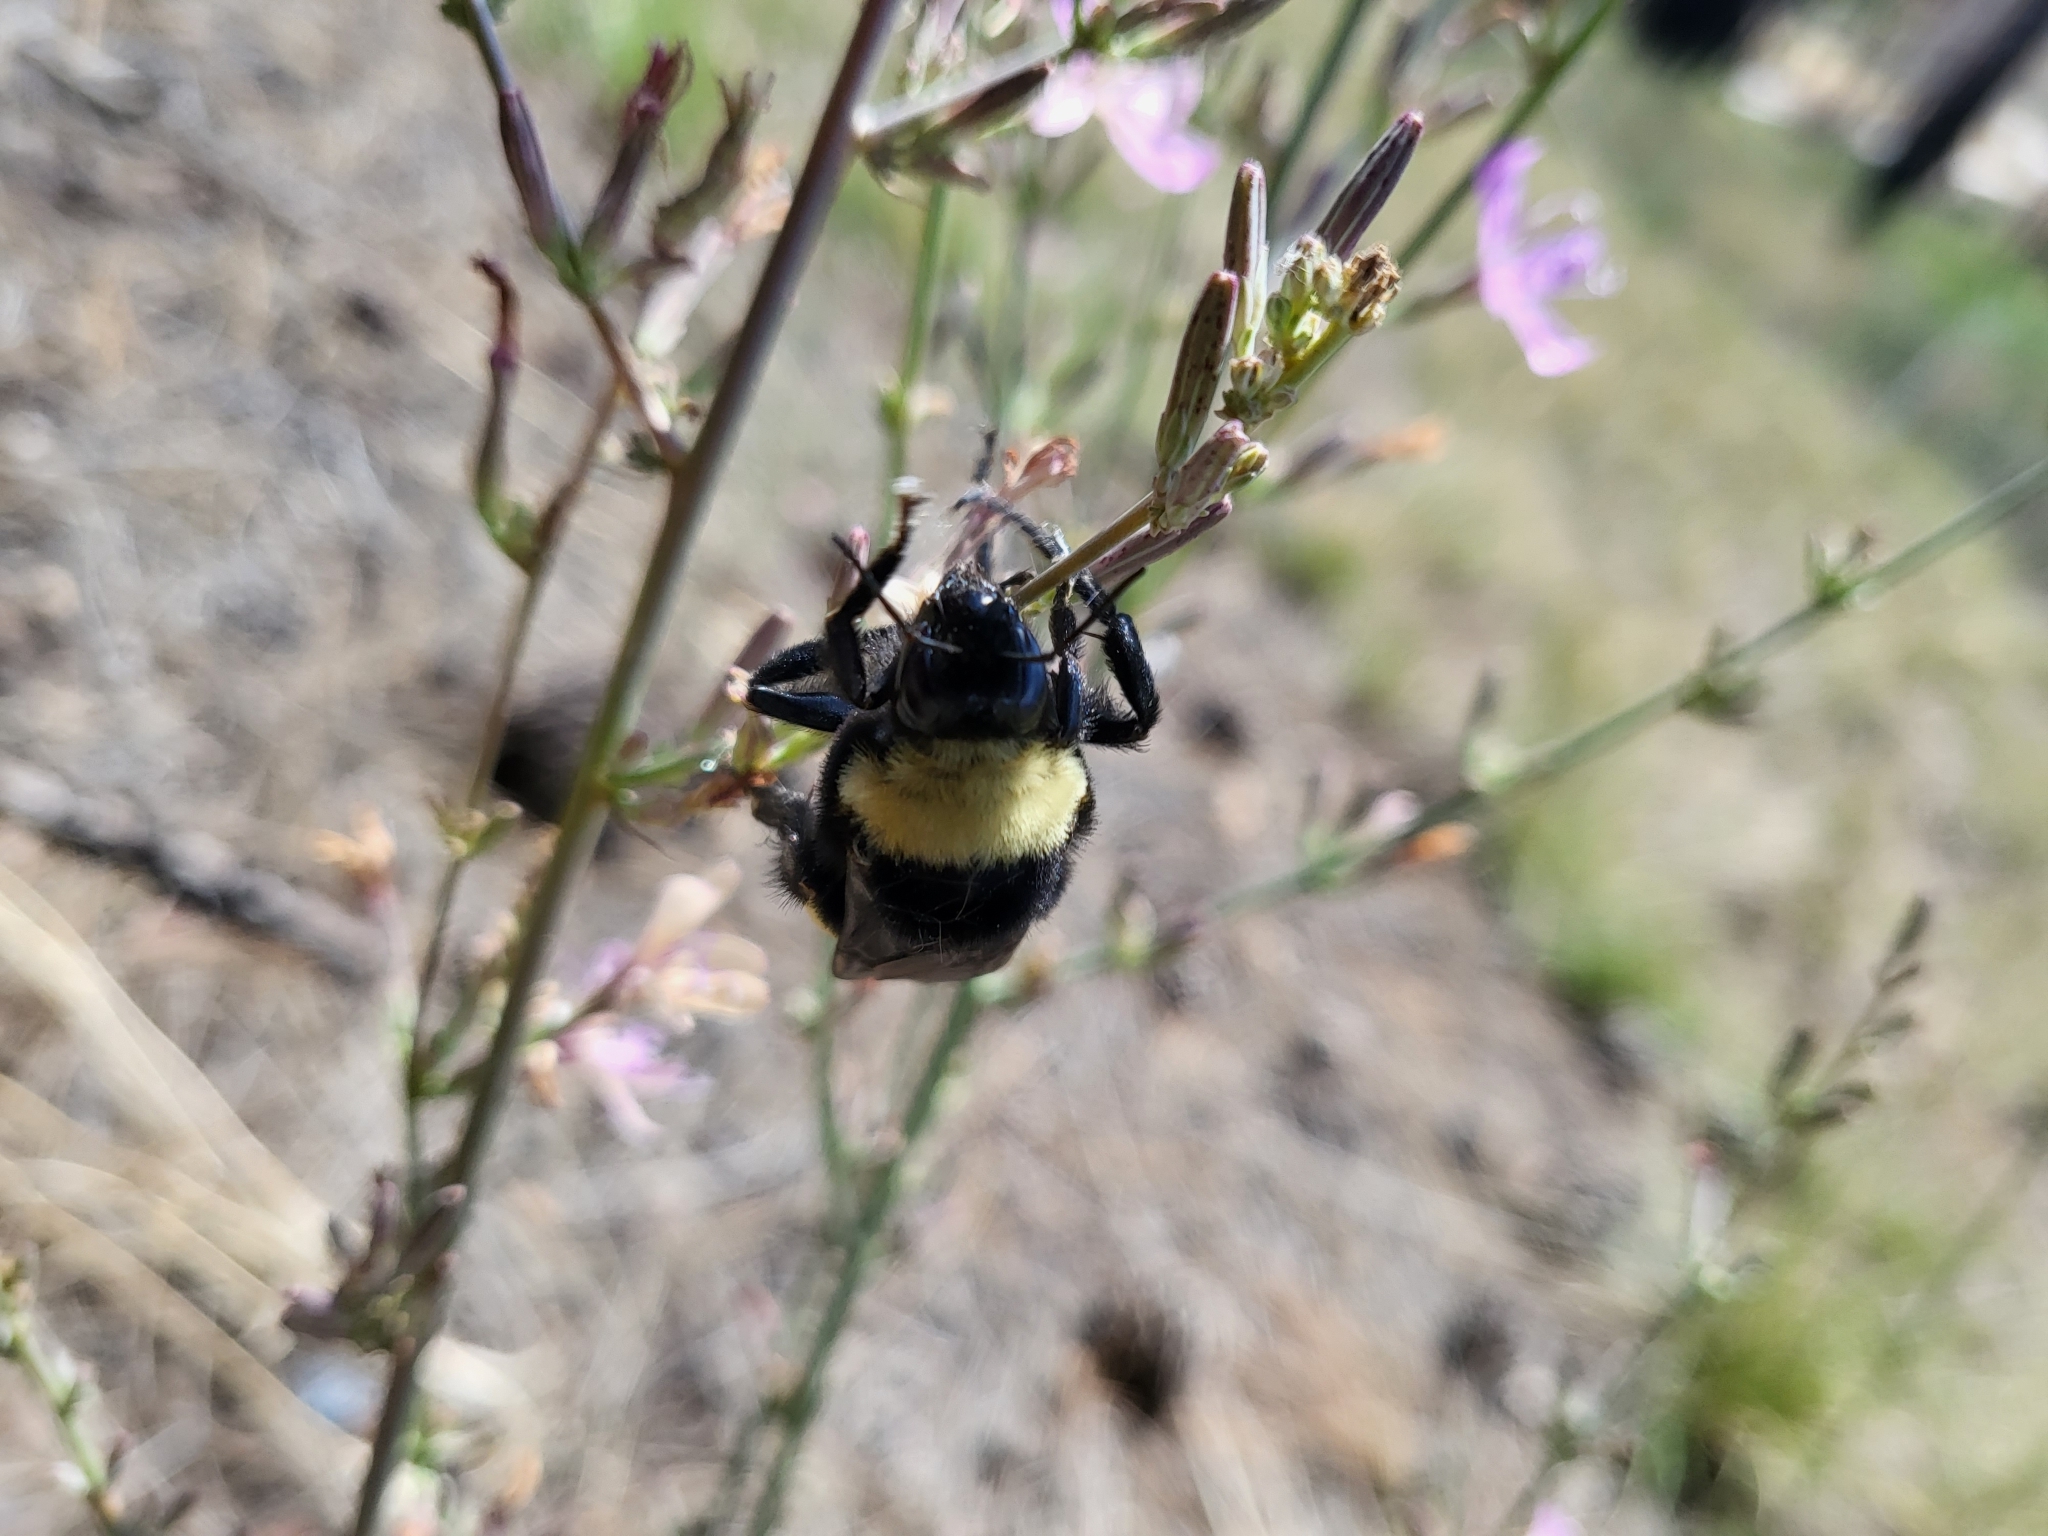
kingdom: Animalia
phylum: Arthropoda
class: Insecta
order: Hymenoptera
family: Apidae
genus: Bombus
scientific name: Bombus crotchii
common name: Crotch bumble bee
